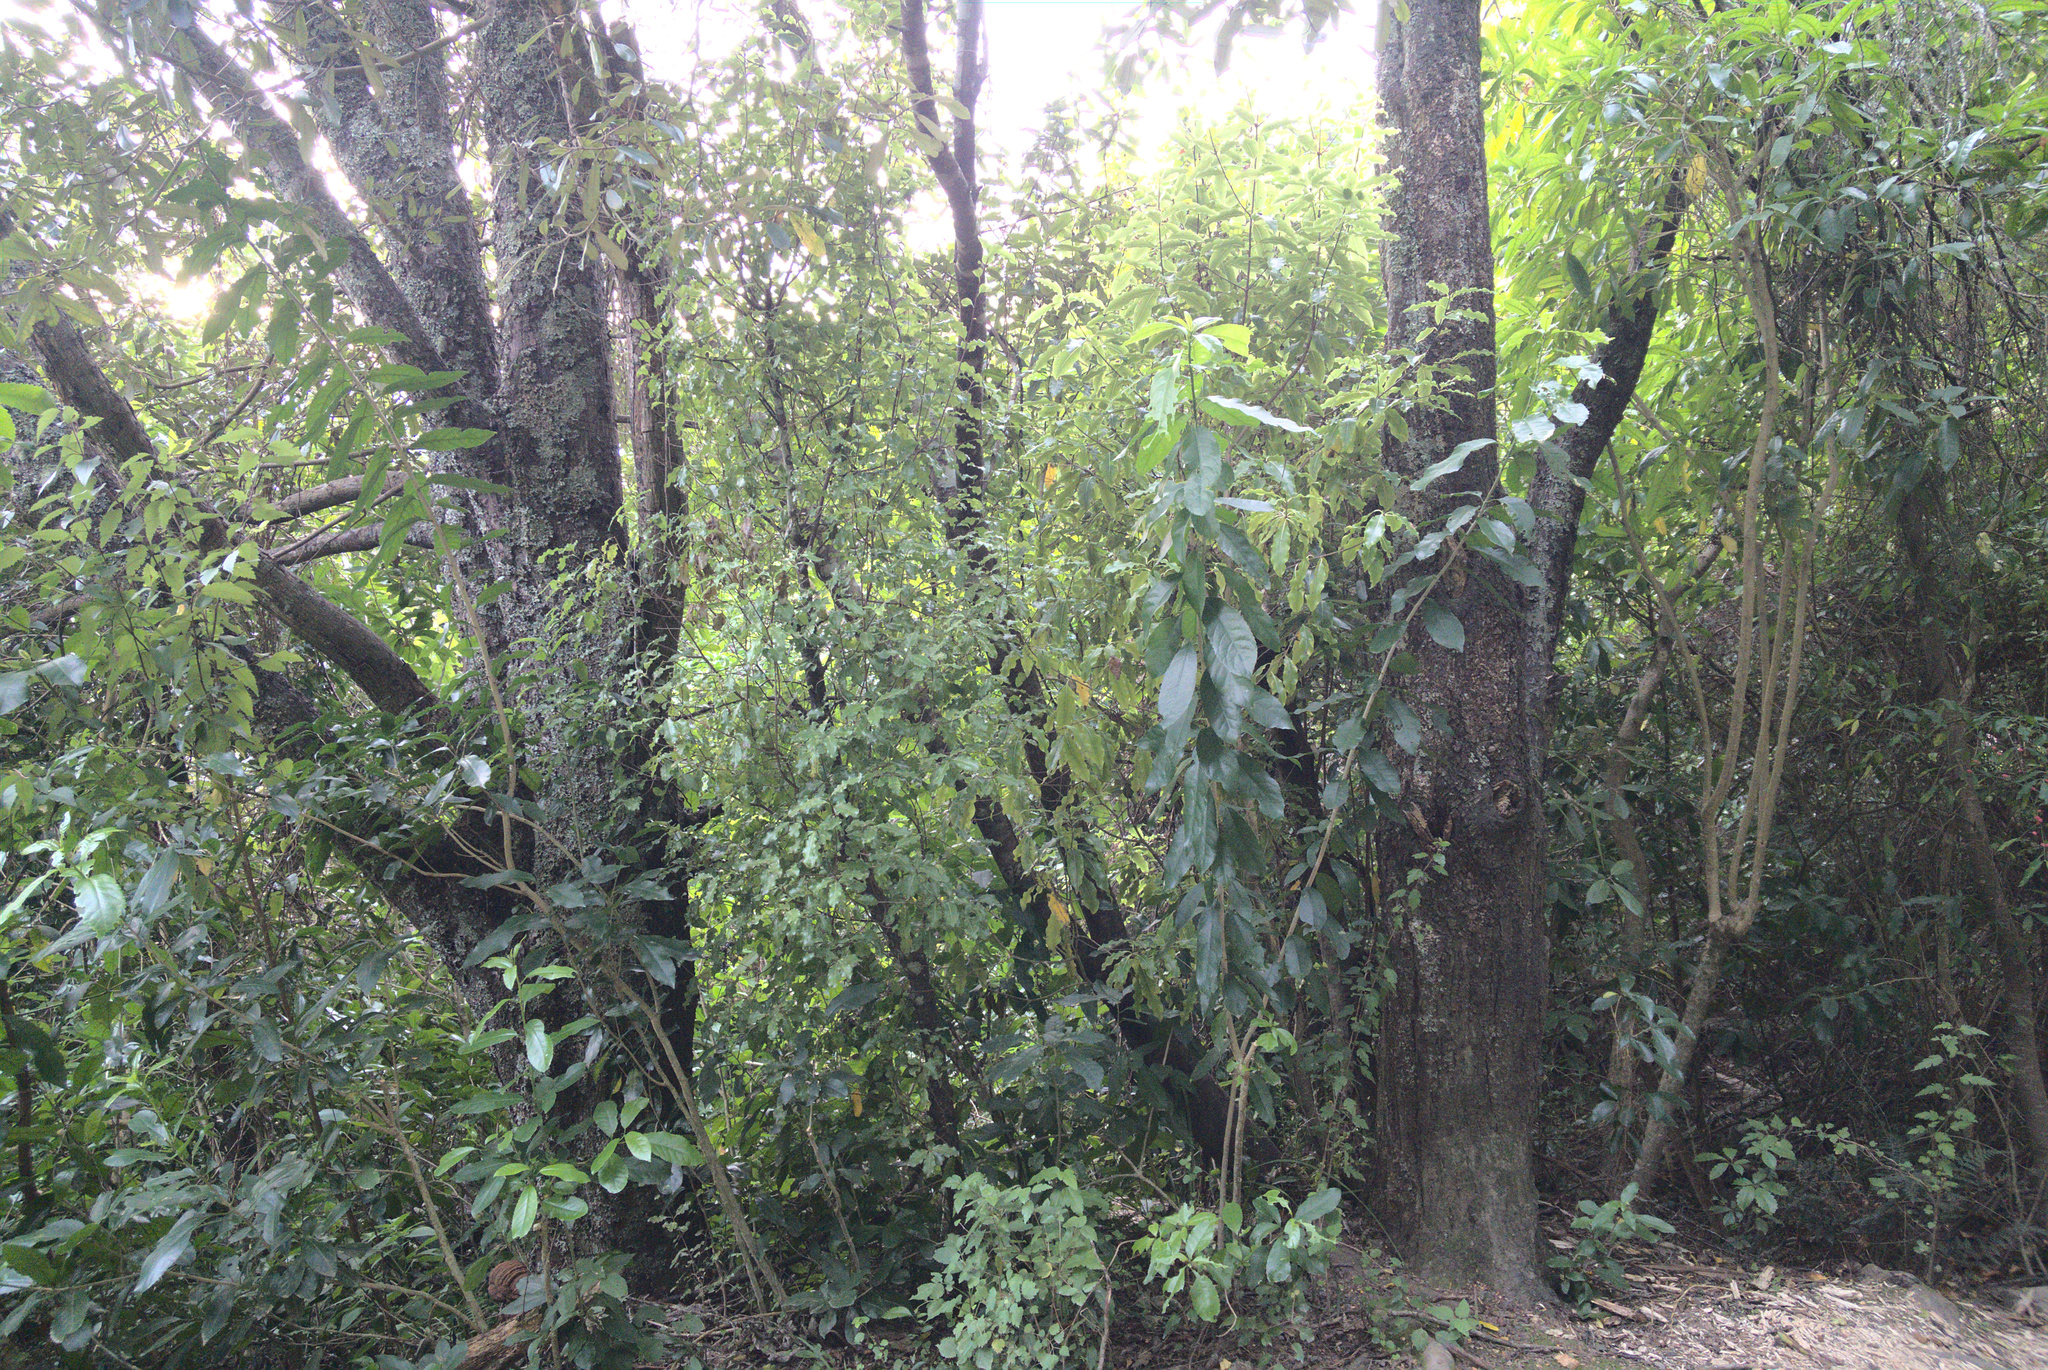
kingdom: Plantae
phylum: Tracheophyta
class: Magnoliopsida
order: Apiales
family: Pittosporaceae
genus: Pittosporum
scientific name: Pittosporum eugenioides
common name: Lemonwood
